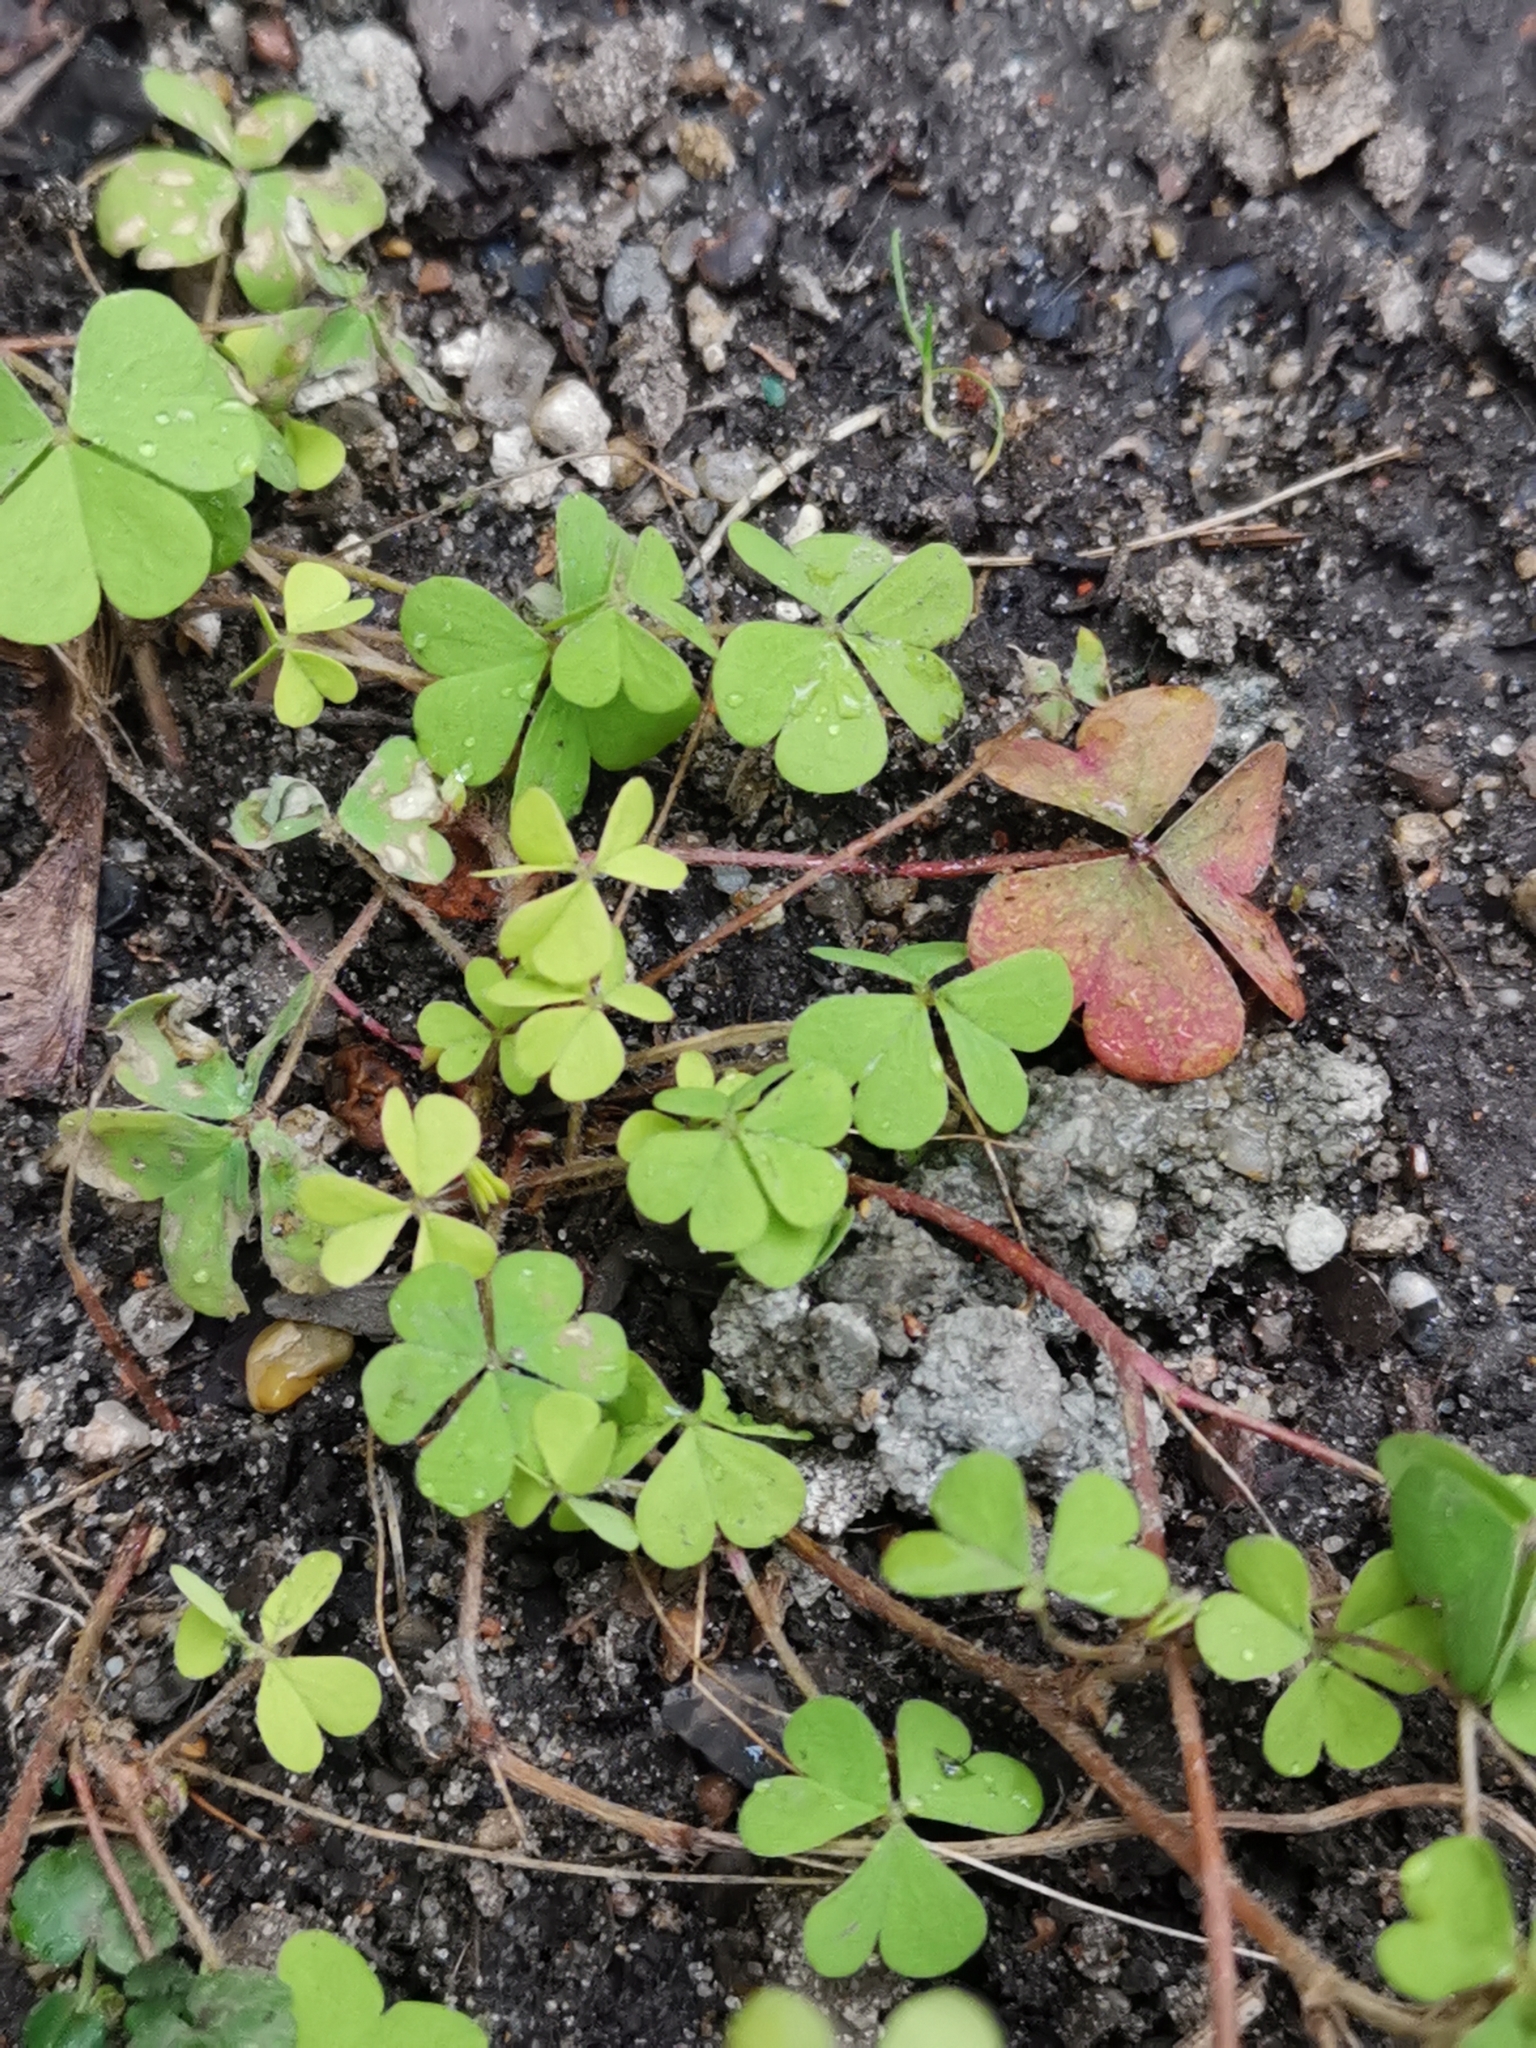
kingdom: Plantae
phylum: Tracheophyta
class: Magnoliopsida
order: Oxalidales
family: Oxalidaceae
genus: Oxalis
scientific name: Oxalis corniculata
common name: Procumbent yellow-sorrel
